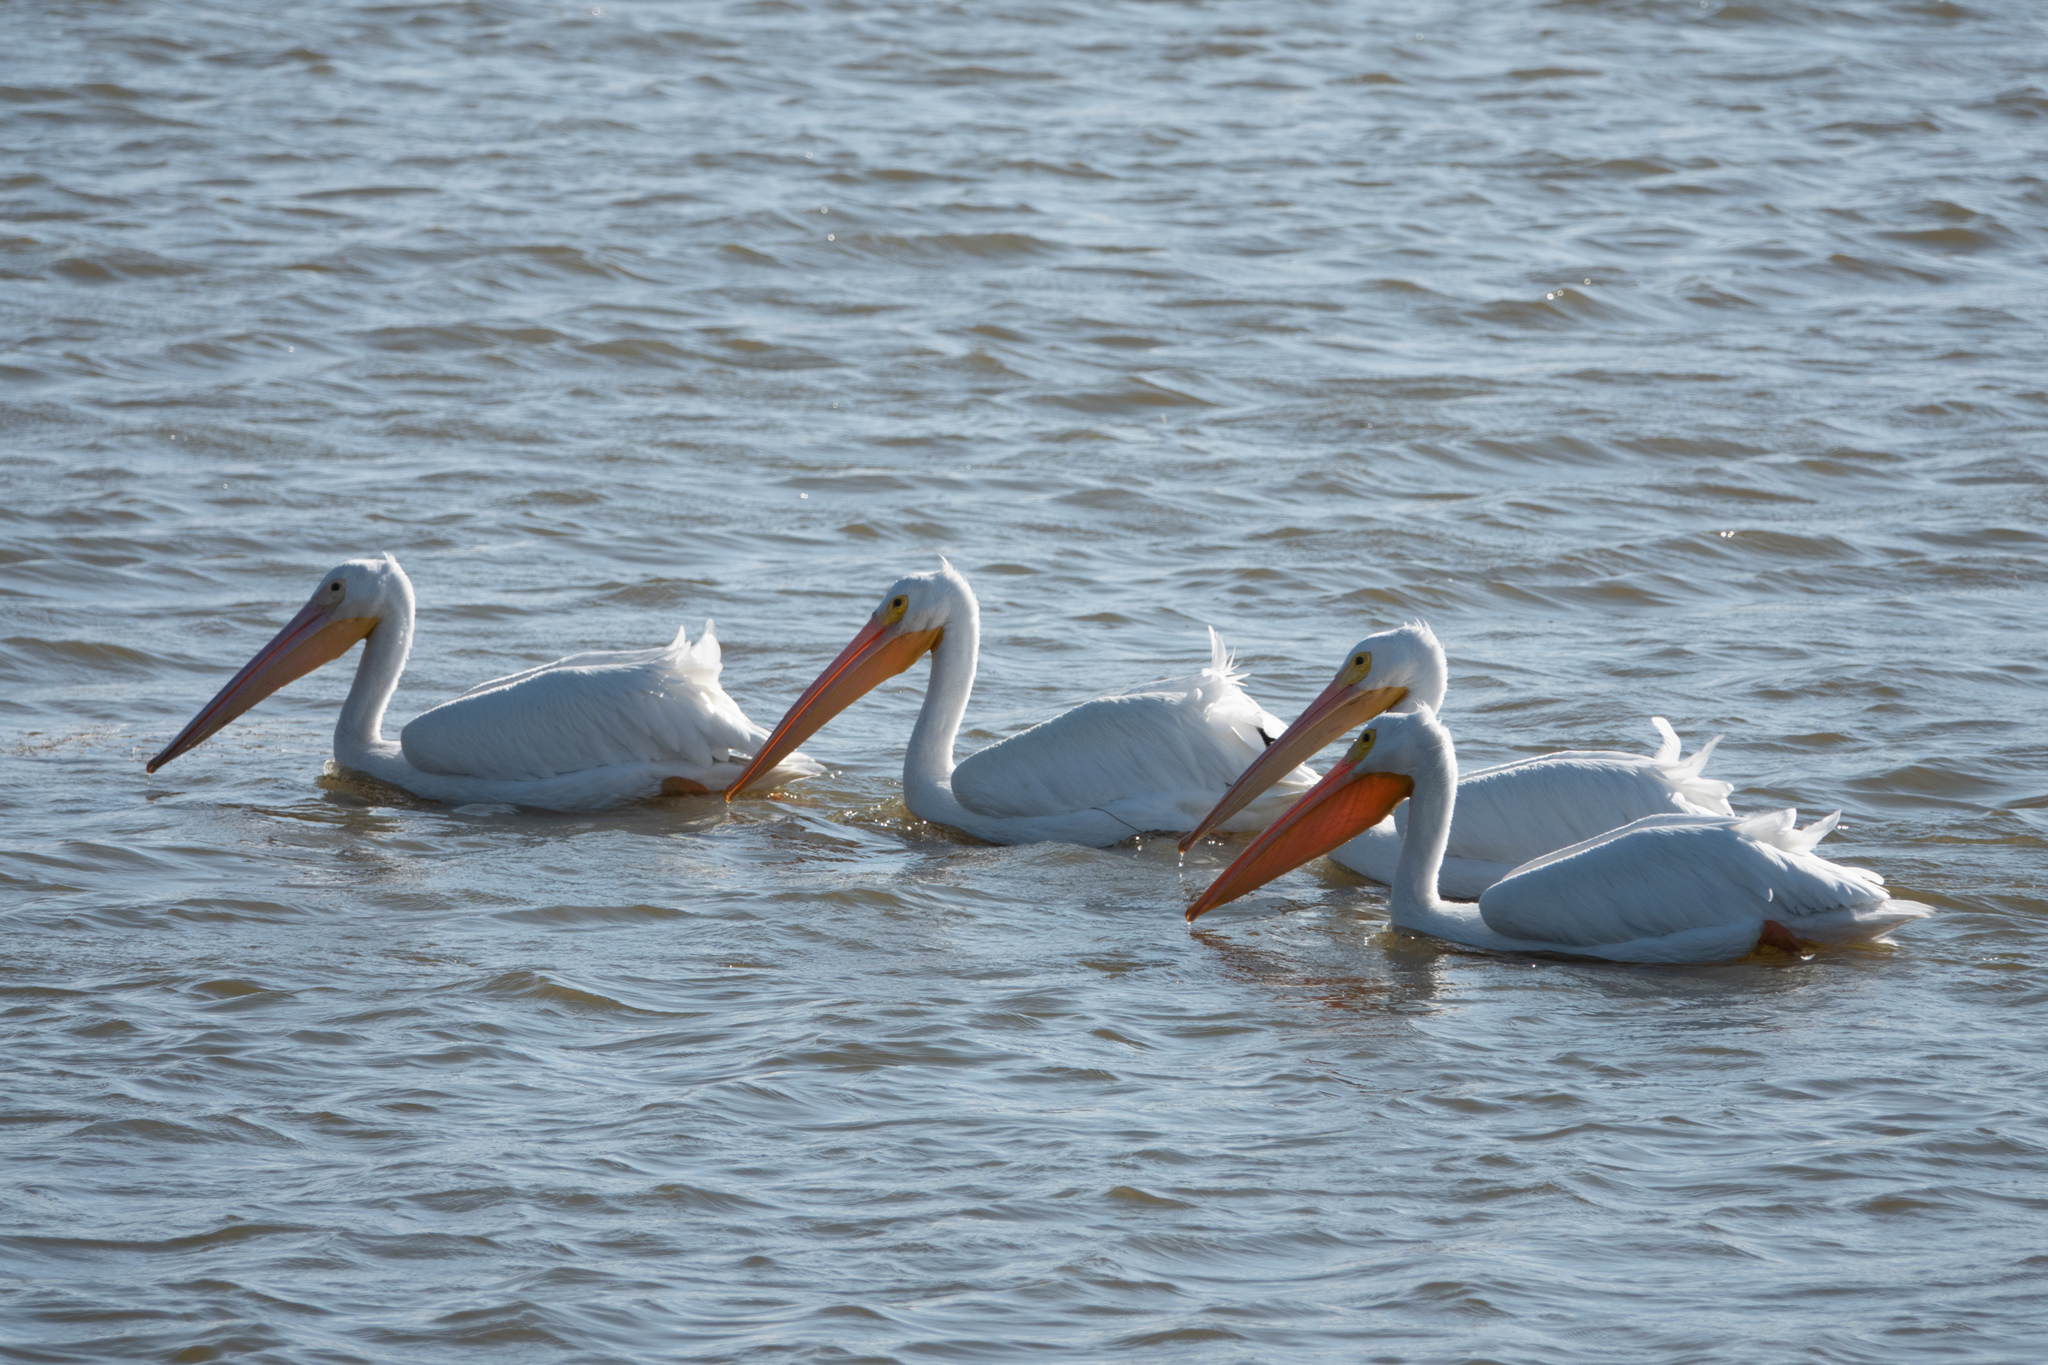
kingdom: Animalia
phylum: Chordata
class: Aves
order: Pelecaniformes
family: Pelecanidae
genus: Pelecanus
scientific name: Pelecanus erythrorhynchos
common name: American white pelican
